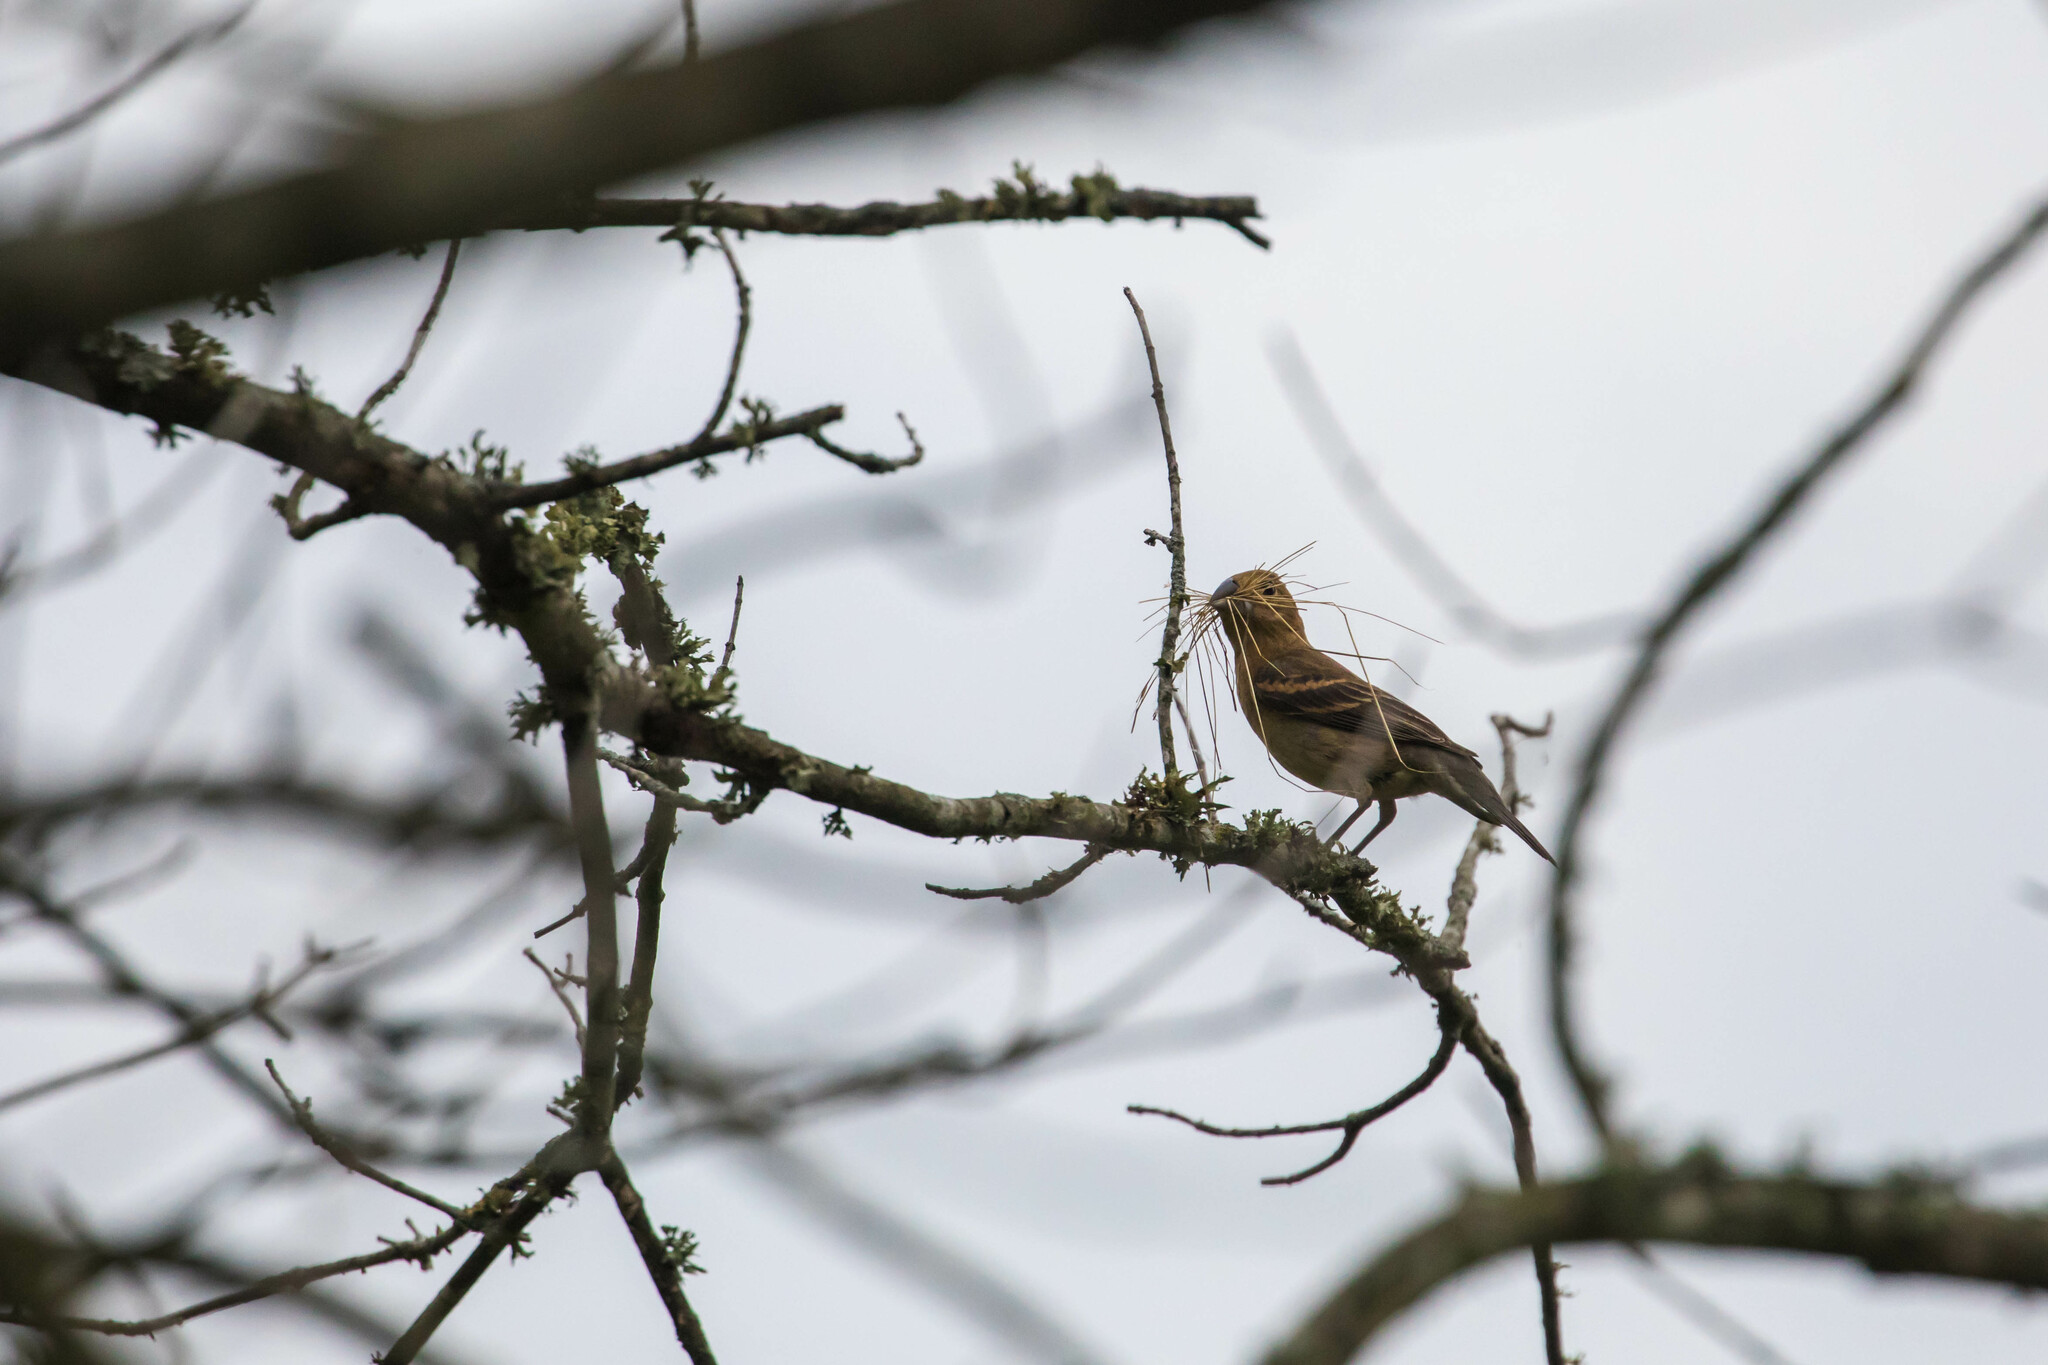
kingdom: Animalia
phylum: Chordata
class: Aves
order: Passeriformes
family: Cardinalidae
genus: Passerina
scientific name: Passerina caerulea
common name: Blue grosbeak
